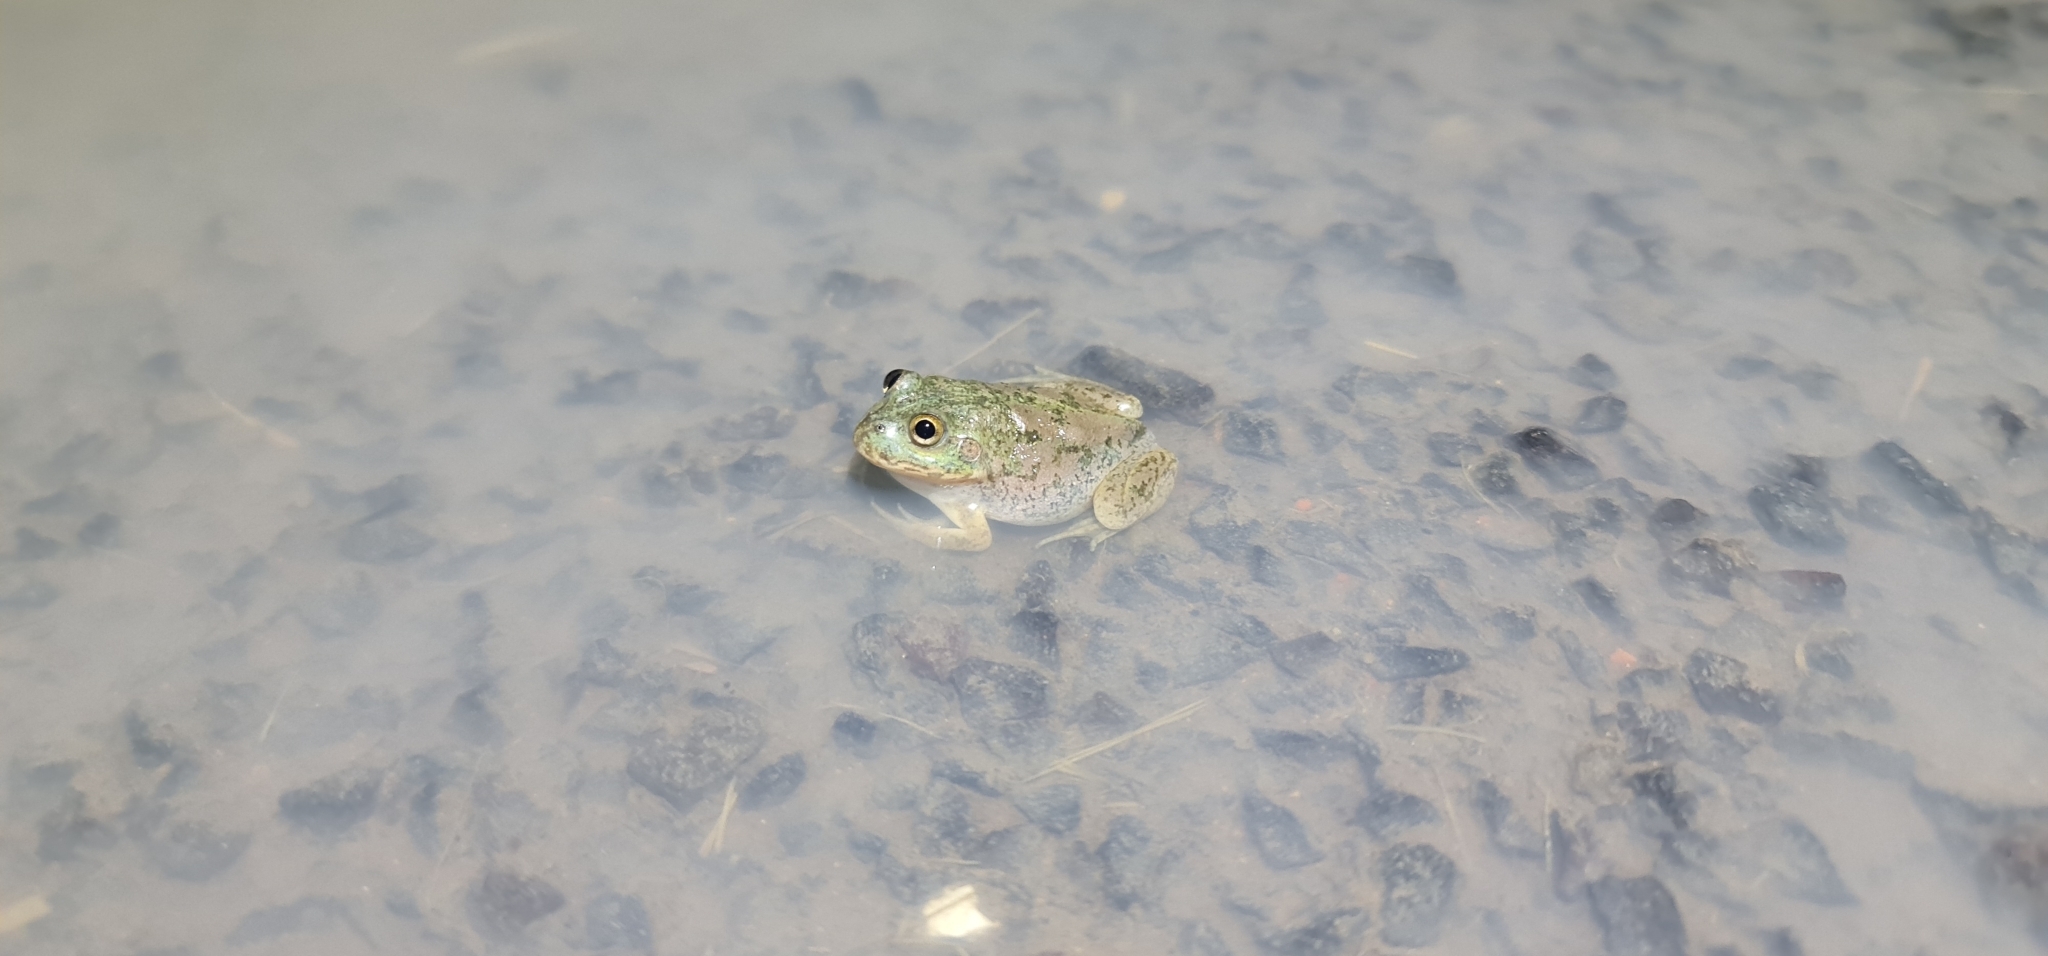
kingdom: Animalia
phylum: Chordata
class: Amphibia
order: Anura
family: Pelodryadidae
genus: Ranoidea
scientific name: Ranoidea platycephala
